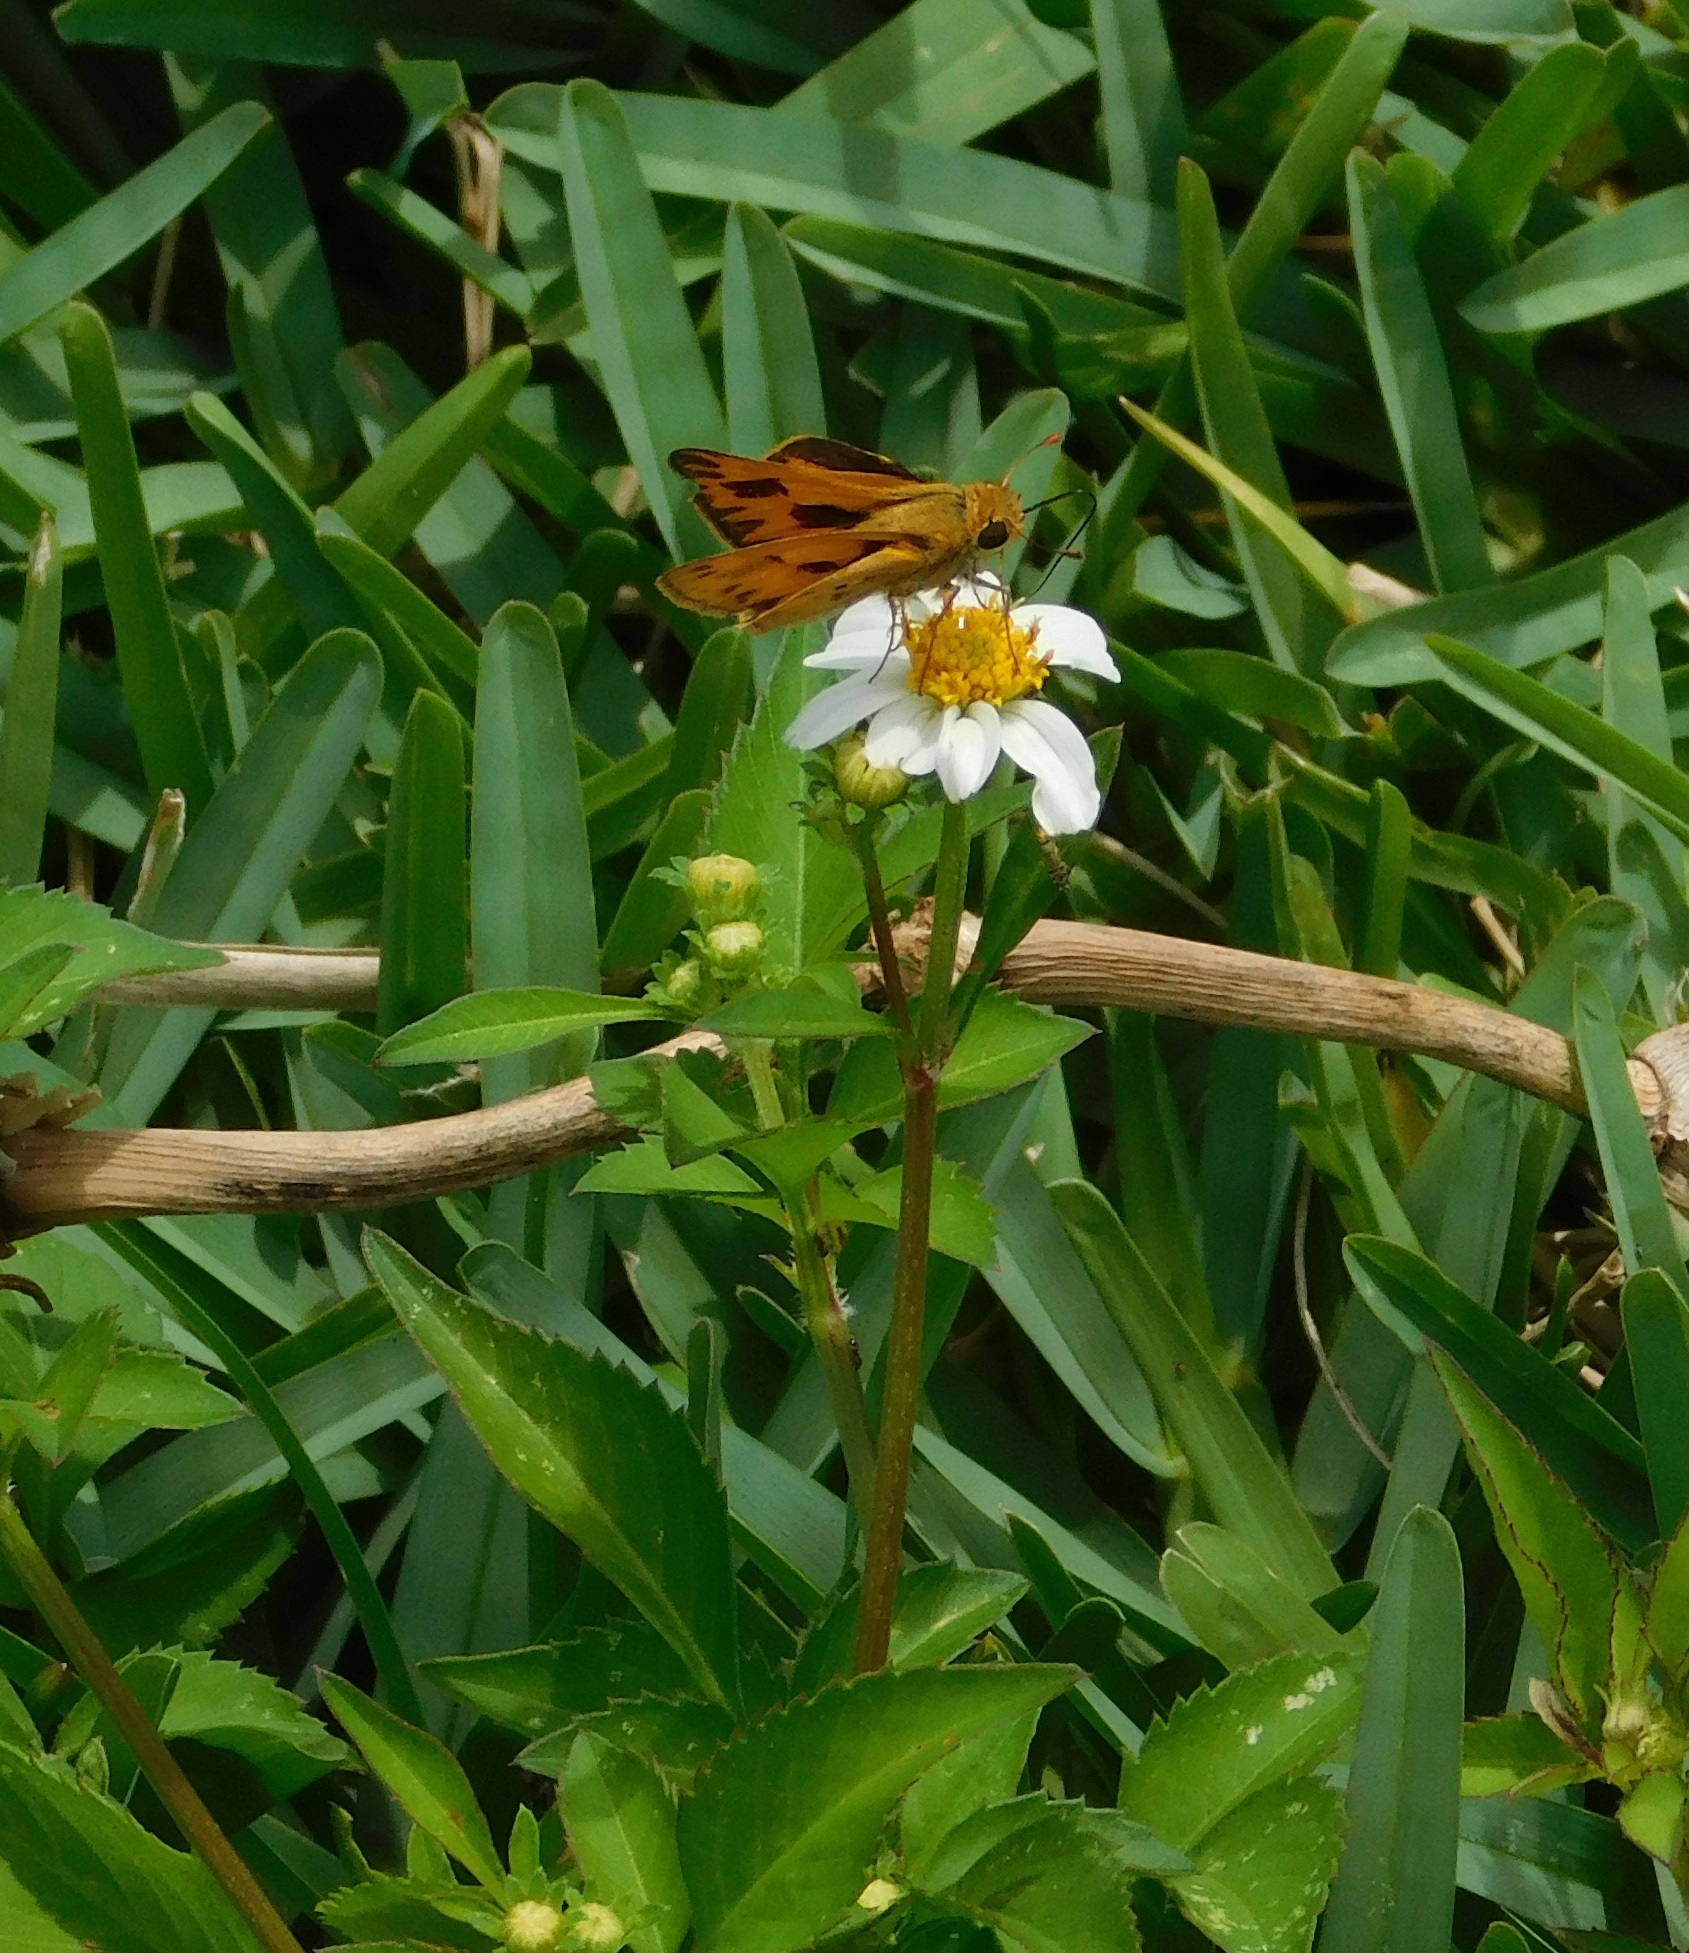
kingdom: Animalia
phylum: Arthropoda
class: Insecta
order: Lepidoptera
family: Hesperiidae
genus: Hylephila
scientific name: Hylephila phyleus
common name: Fiery skipper
